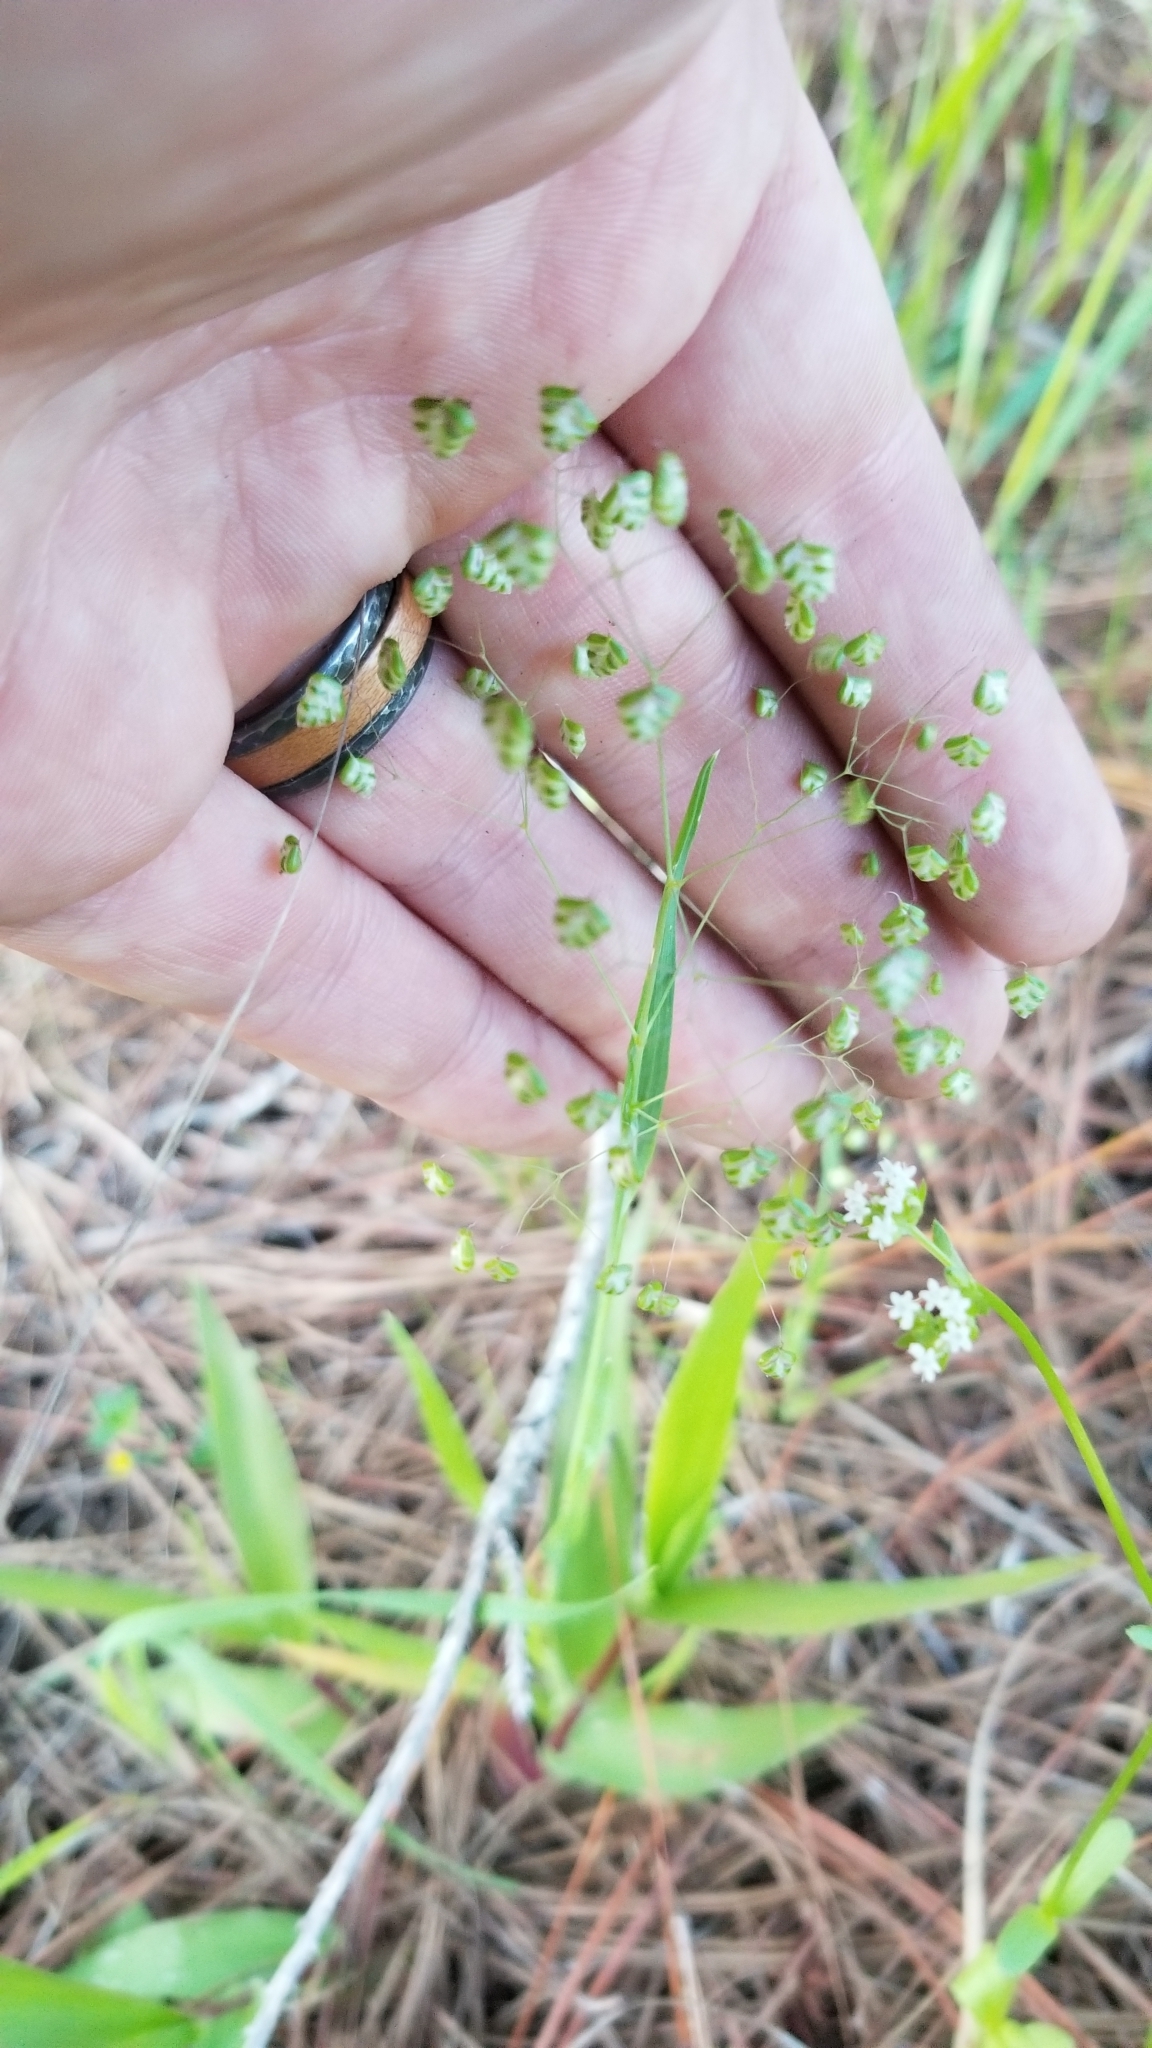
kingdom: Plantae
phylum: Tracheophyta
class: Liliopsida
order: Poales
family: Poaceae
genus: Briza
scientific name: Briza minor
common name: Lesser quaking-grass
